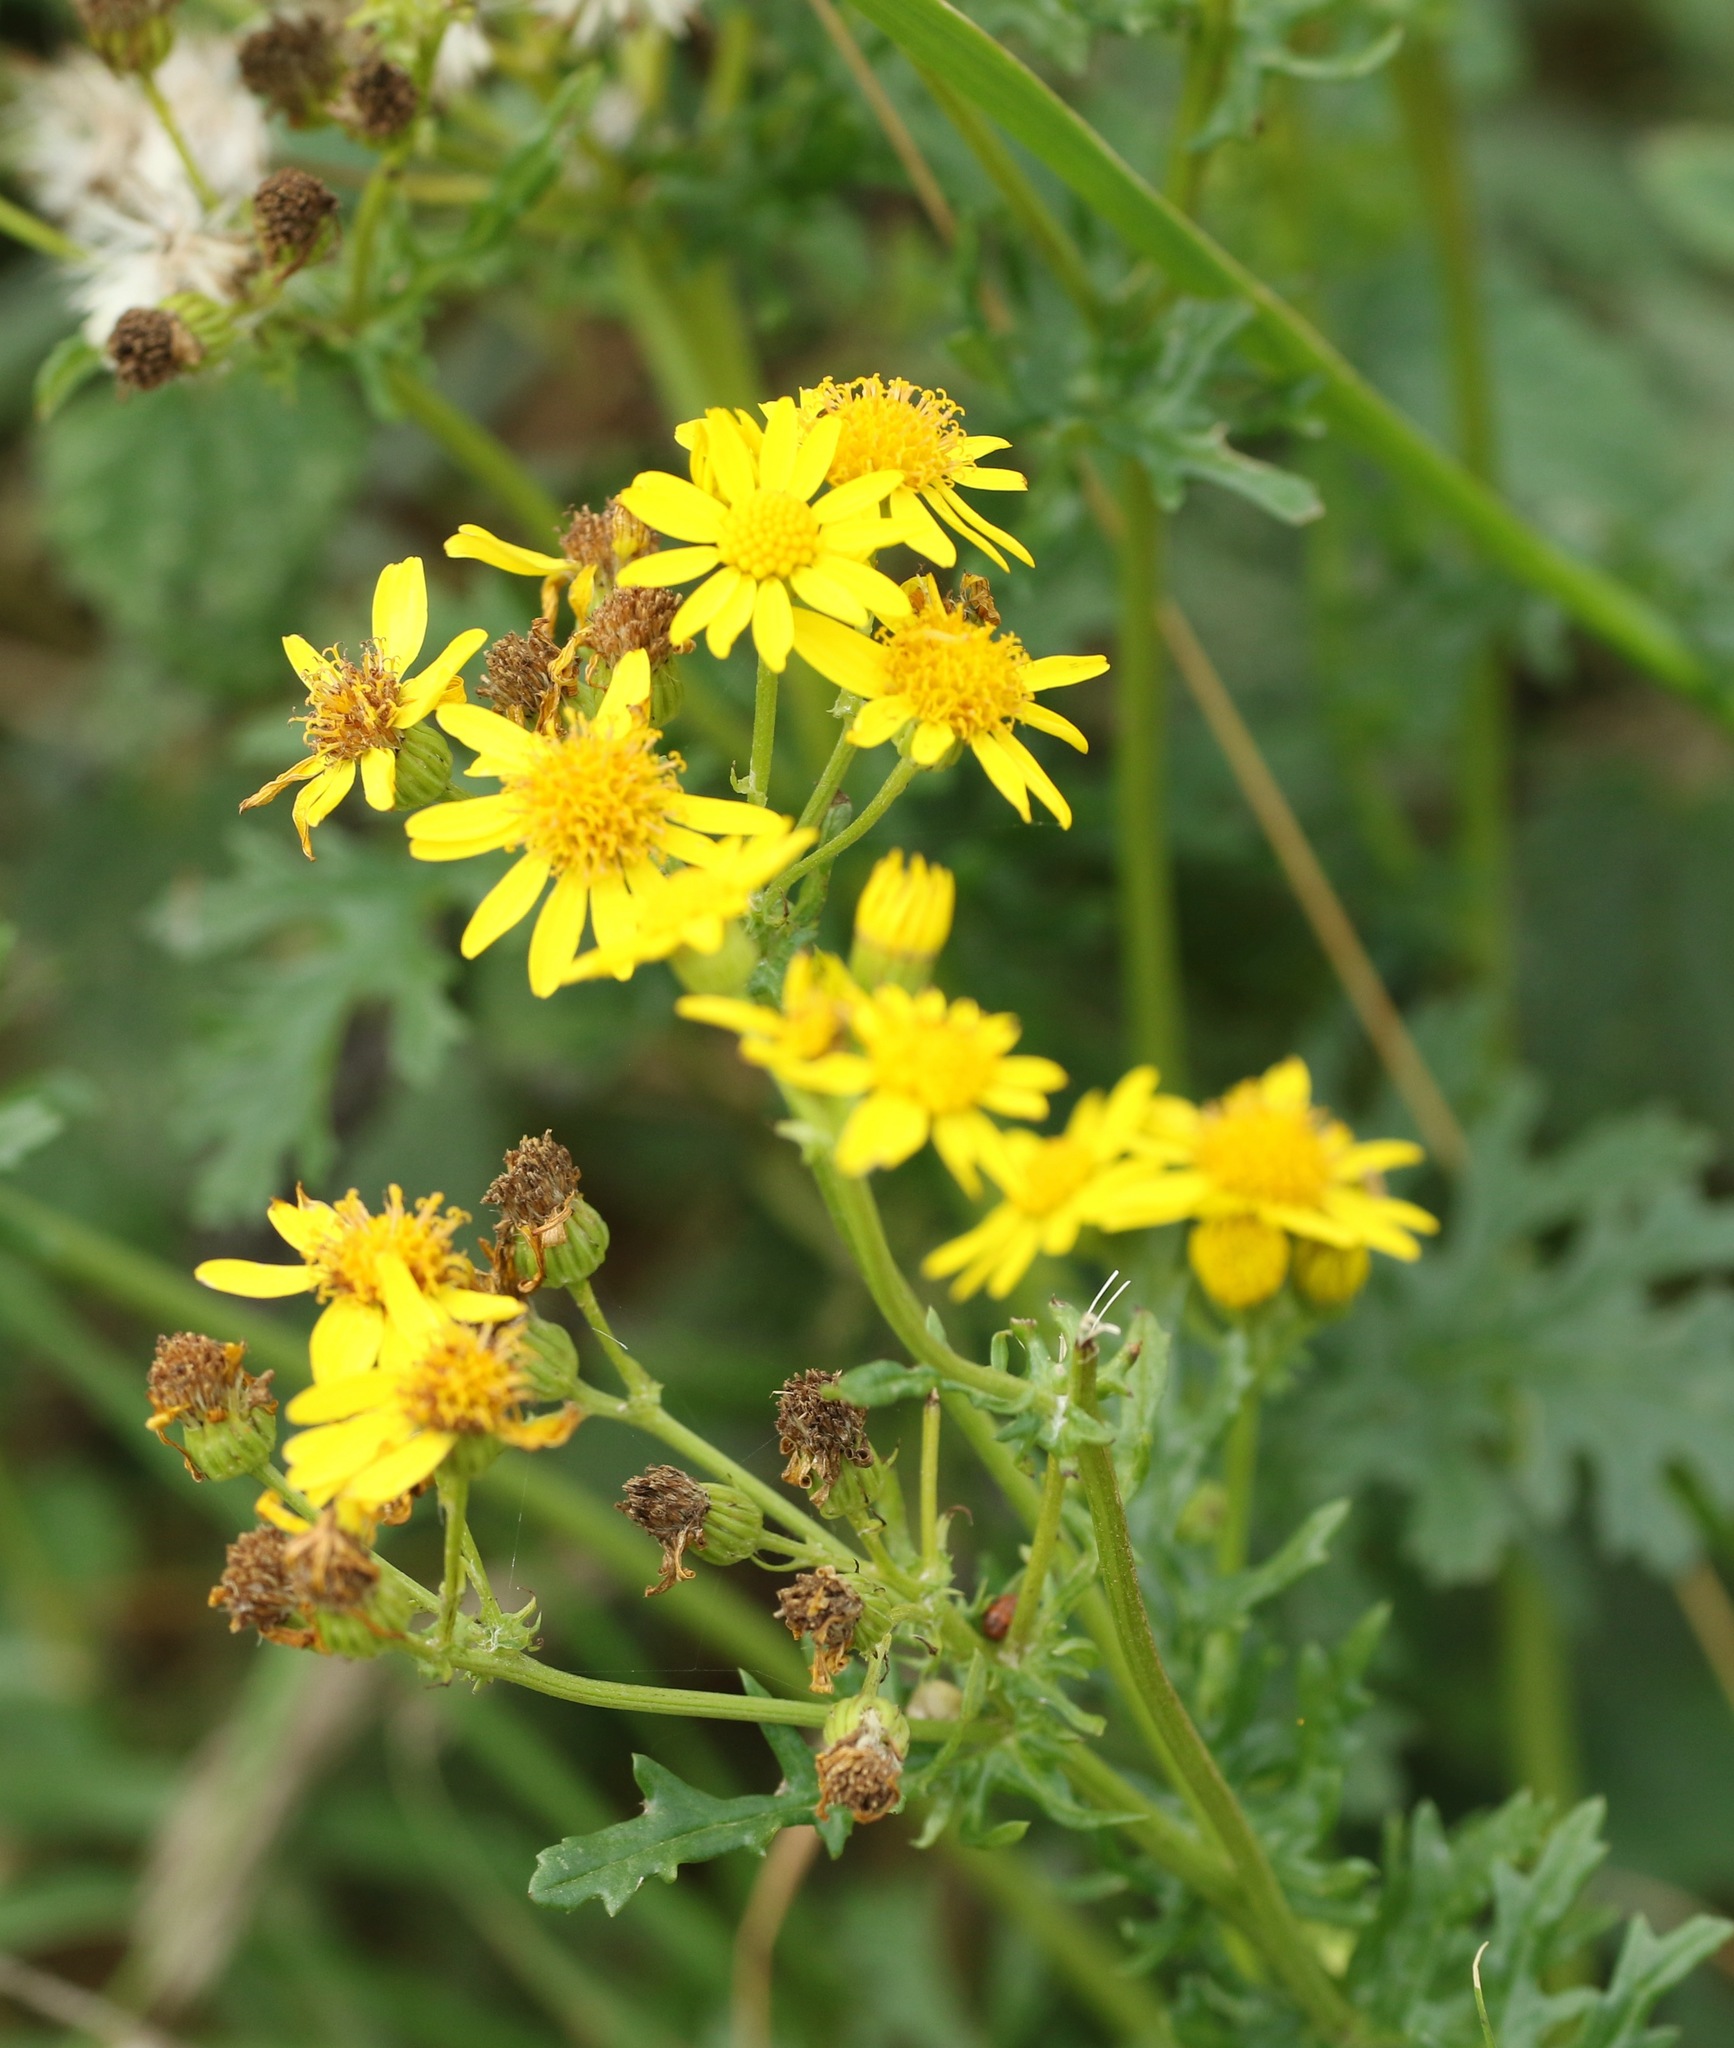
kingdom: Plantae
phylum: Tracheophyta
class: Magnoliopsida
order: Asterales
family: Asteraceae
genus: Jacobaea
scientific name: Jacobaea vulgaris
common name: Stinking willie
